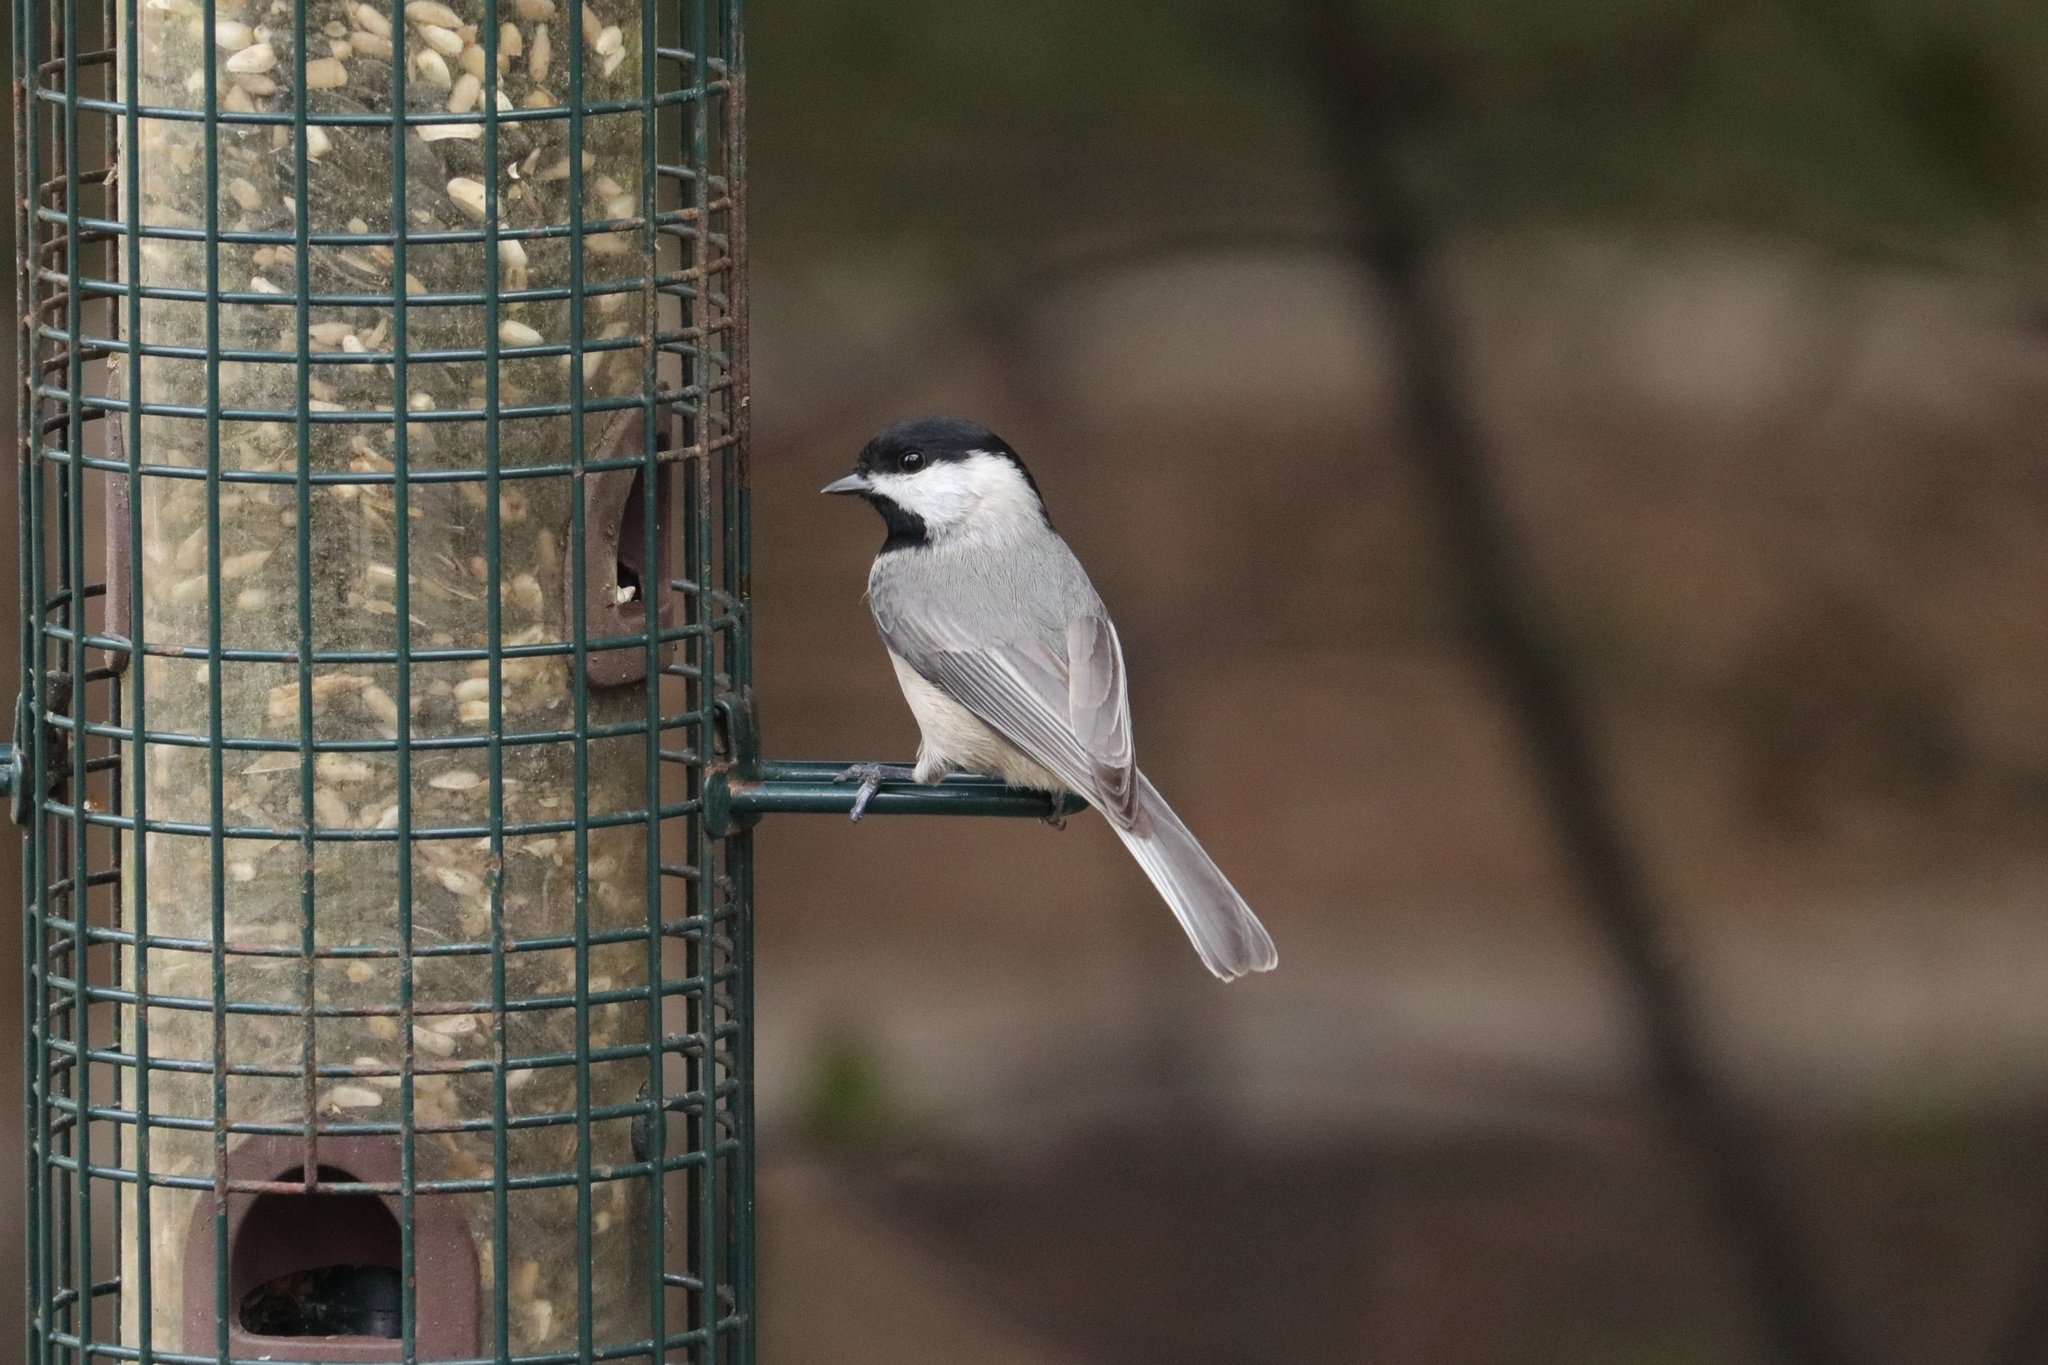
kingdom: Animalia
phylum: Chordata
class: Aves
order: Passeriformes
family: Paridae
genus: Poecile
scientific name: Poecile carolinensis
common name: Carolina chickadee
